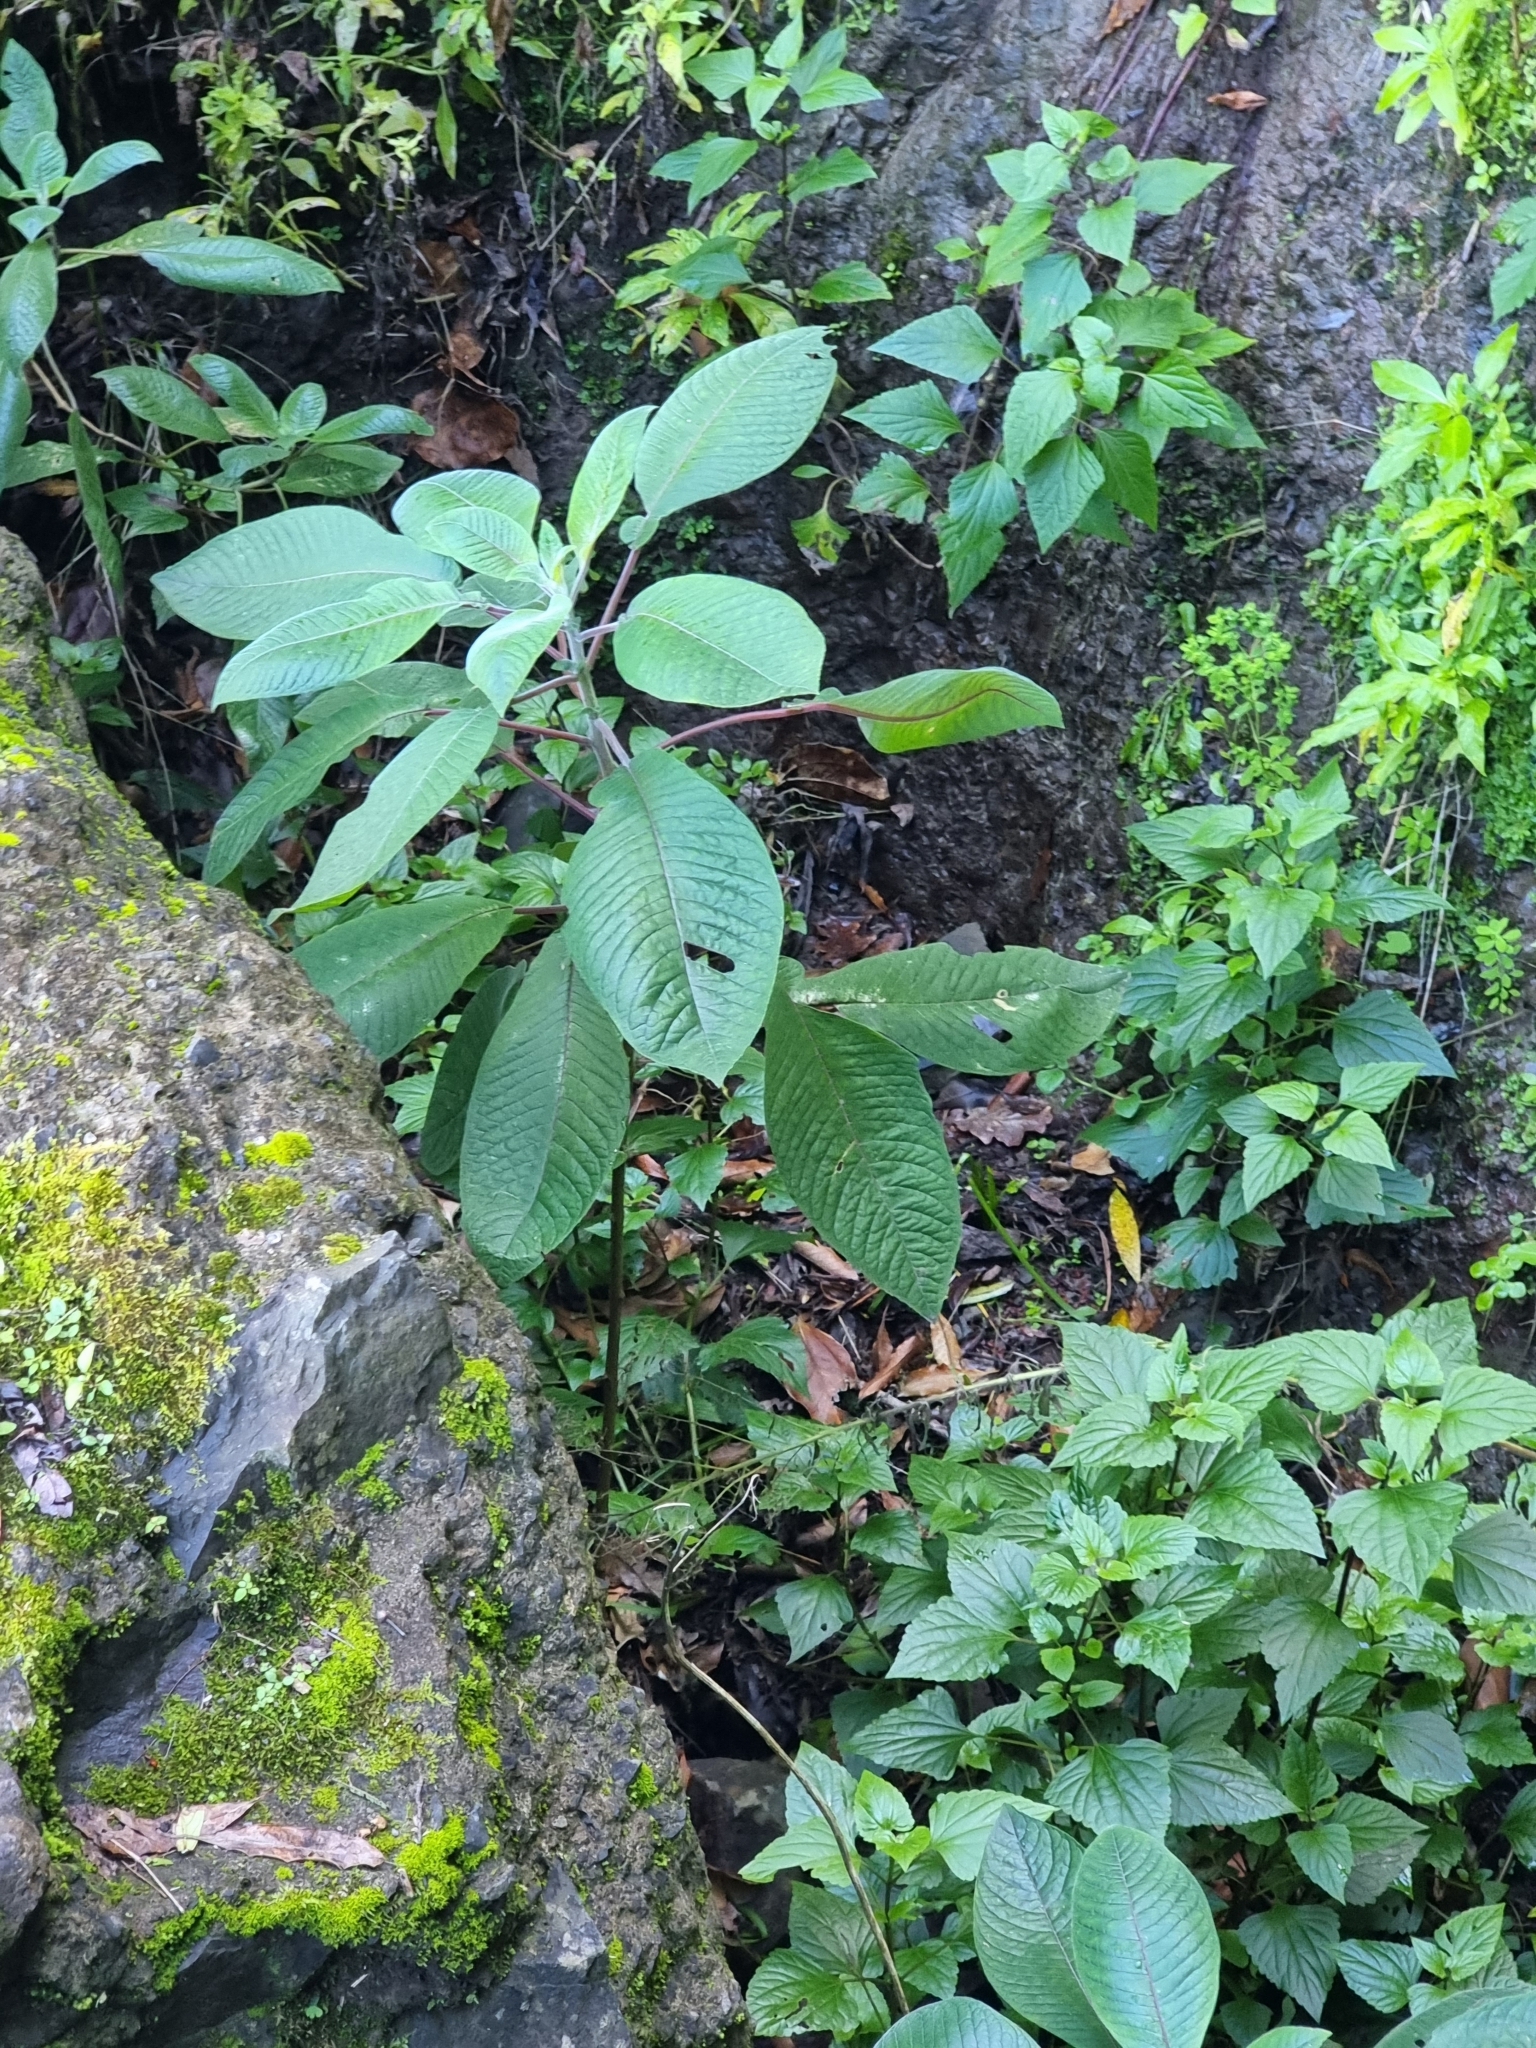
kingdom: Plantae
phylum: Tracheophyta
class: Magnoliopsida
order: Myrtales
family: Onagraceae
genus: Fuchsia
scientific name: Fuchsia boliviana
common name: Bolivian fuchsia
